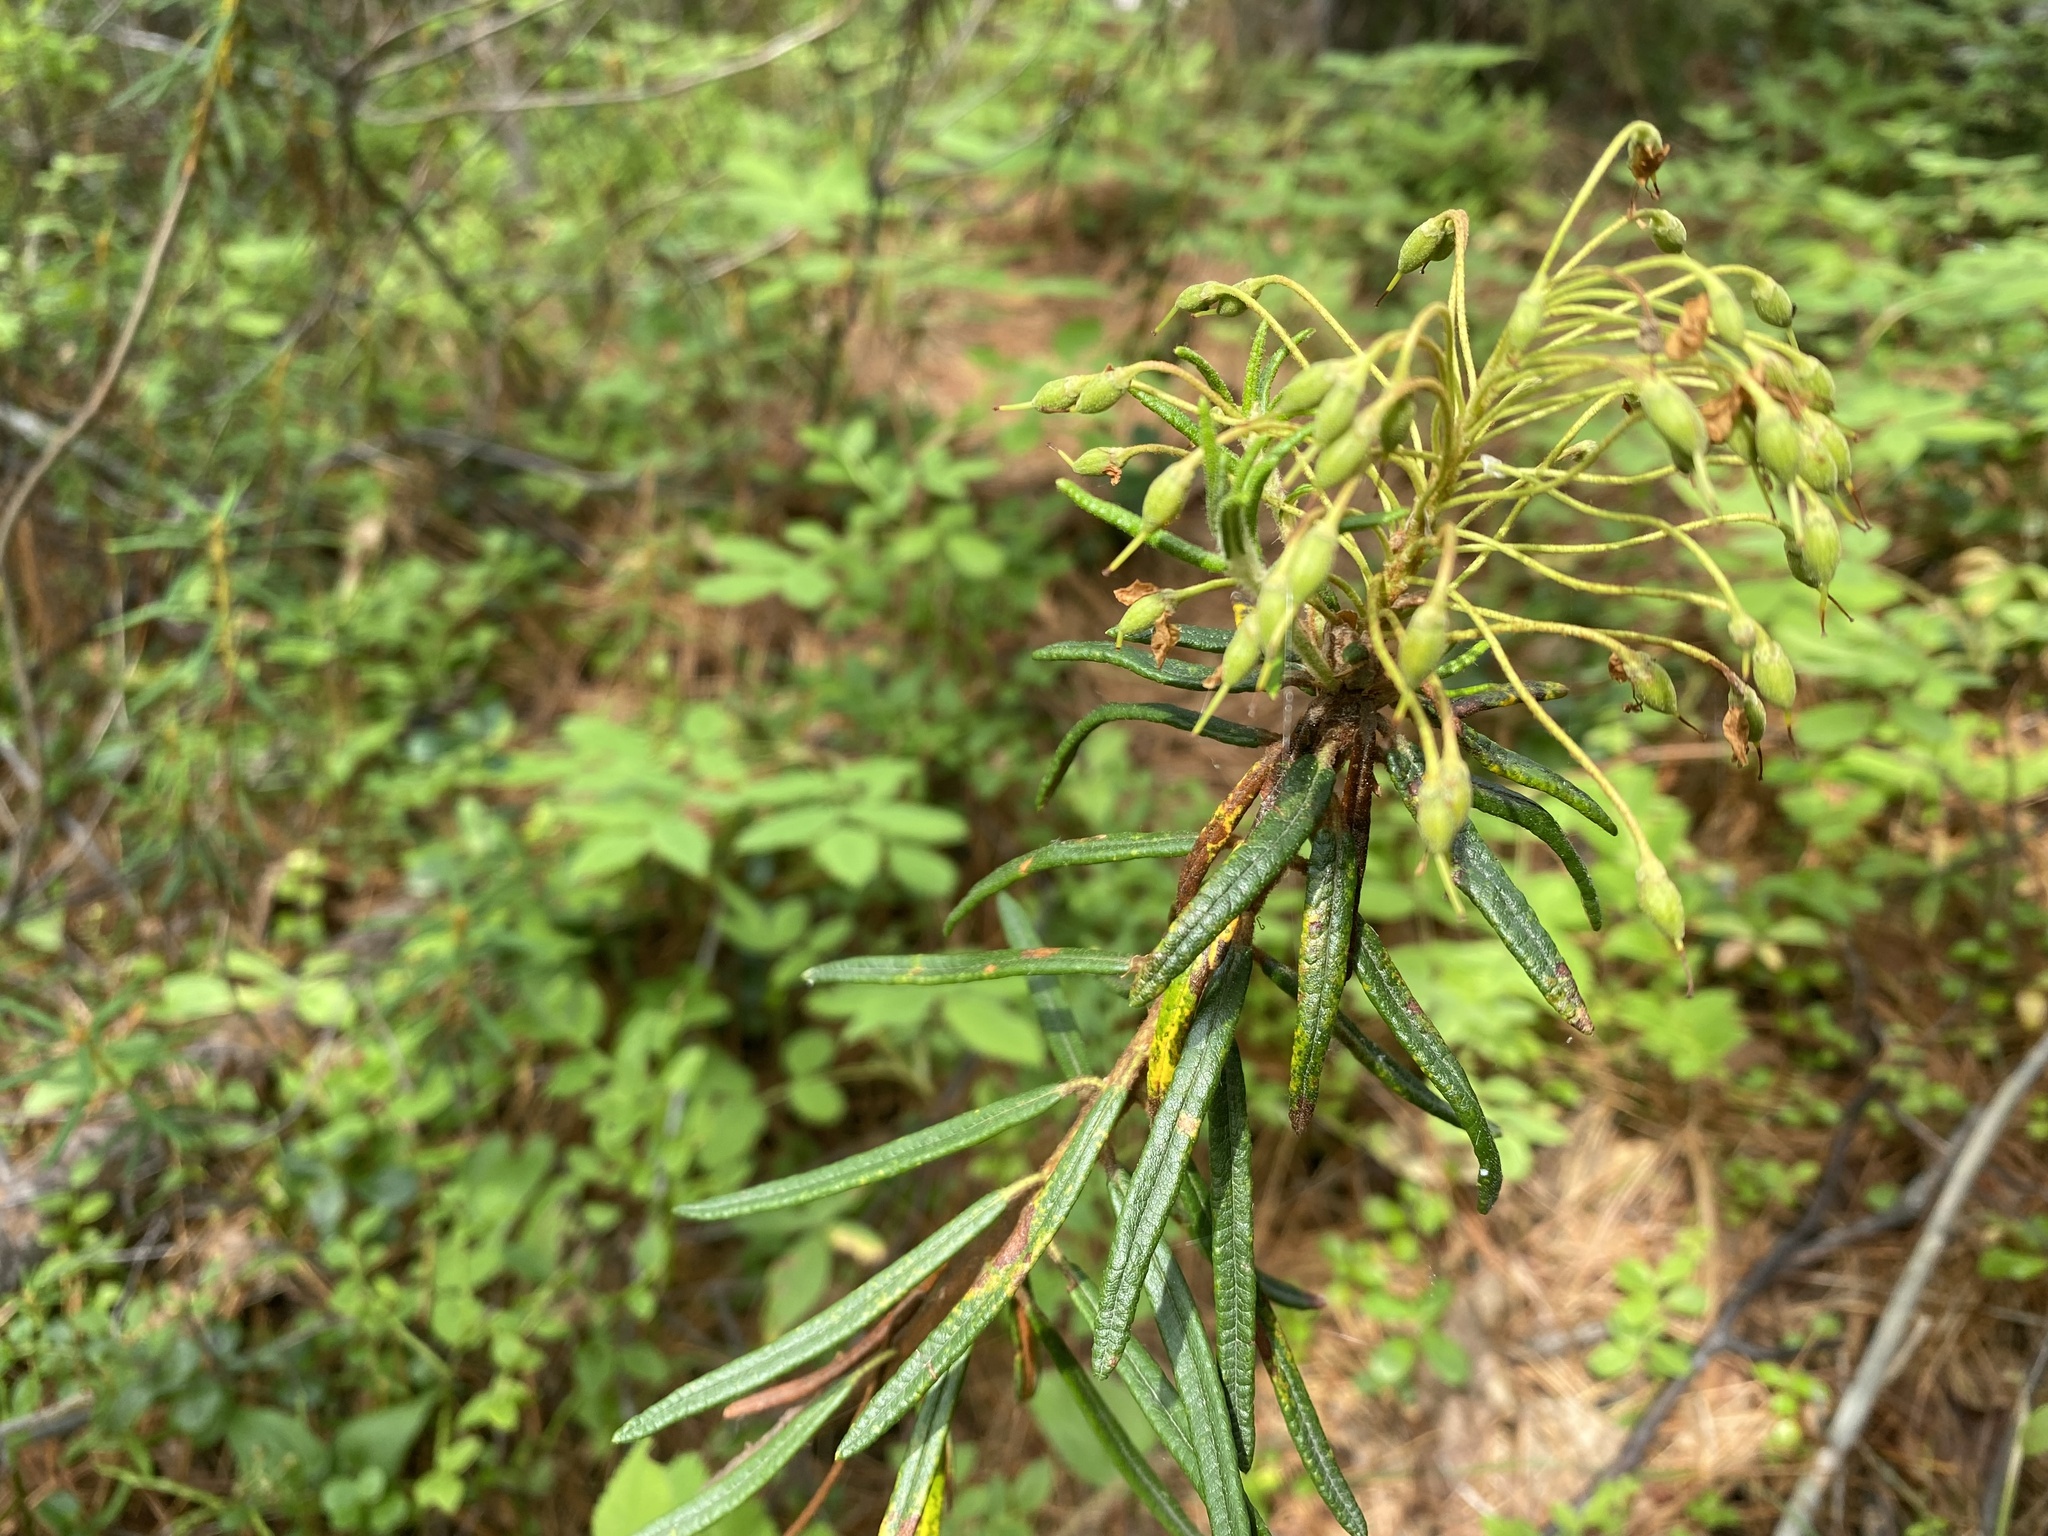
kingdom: Plantae
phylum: Tracheophyta
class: Magnoliopsida
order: Ericales
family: Ericaceae
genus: Rhododendron
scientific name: Rhododendron tomentosum
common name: Marsh labrador tea
